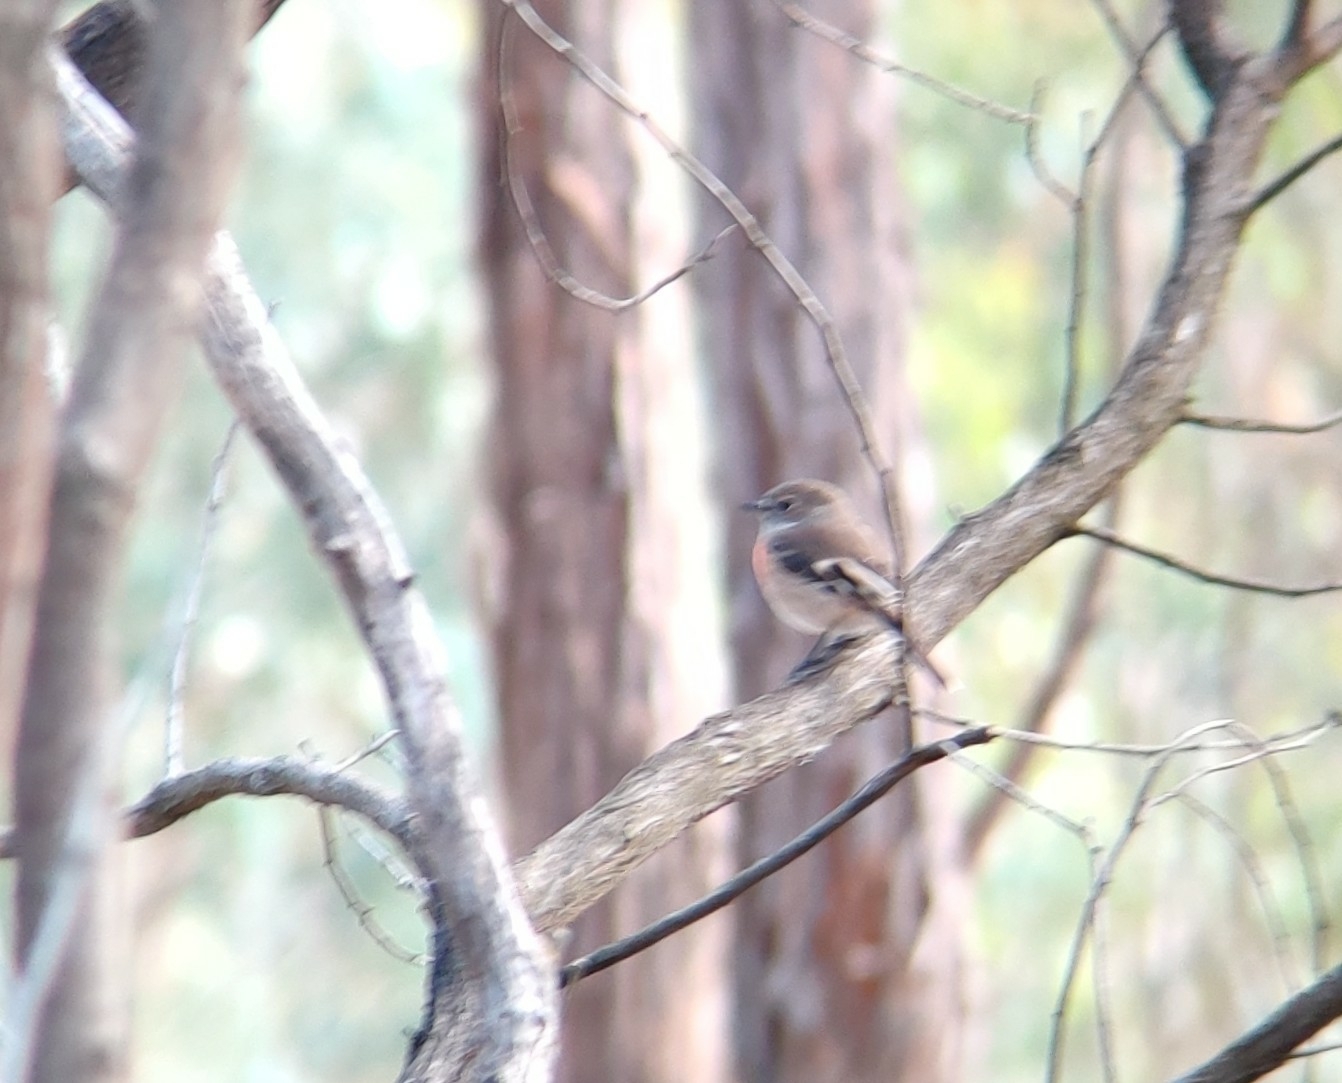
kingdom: Animalia
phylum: Chordata
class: Aves
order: Passeriformes
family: Petroicidae
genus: Petroica
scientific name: Petroica boodang
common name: Scarlet robin
